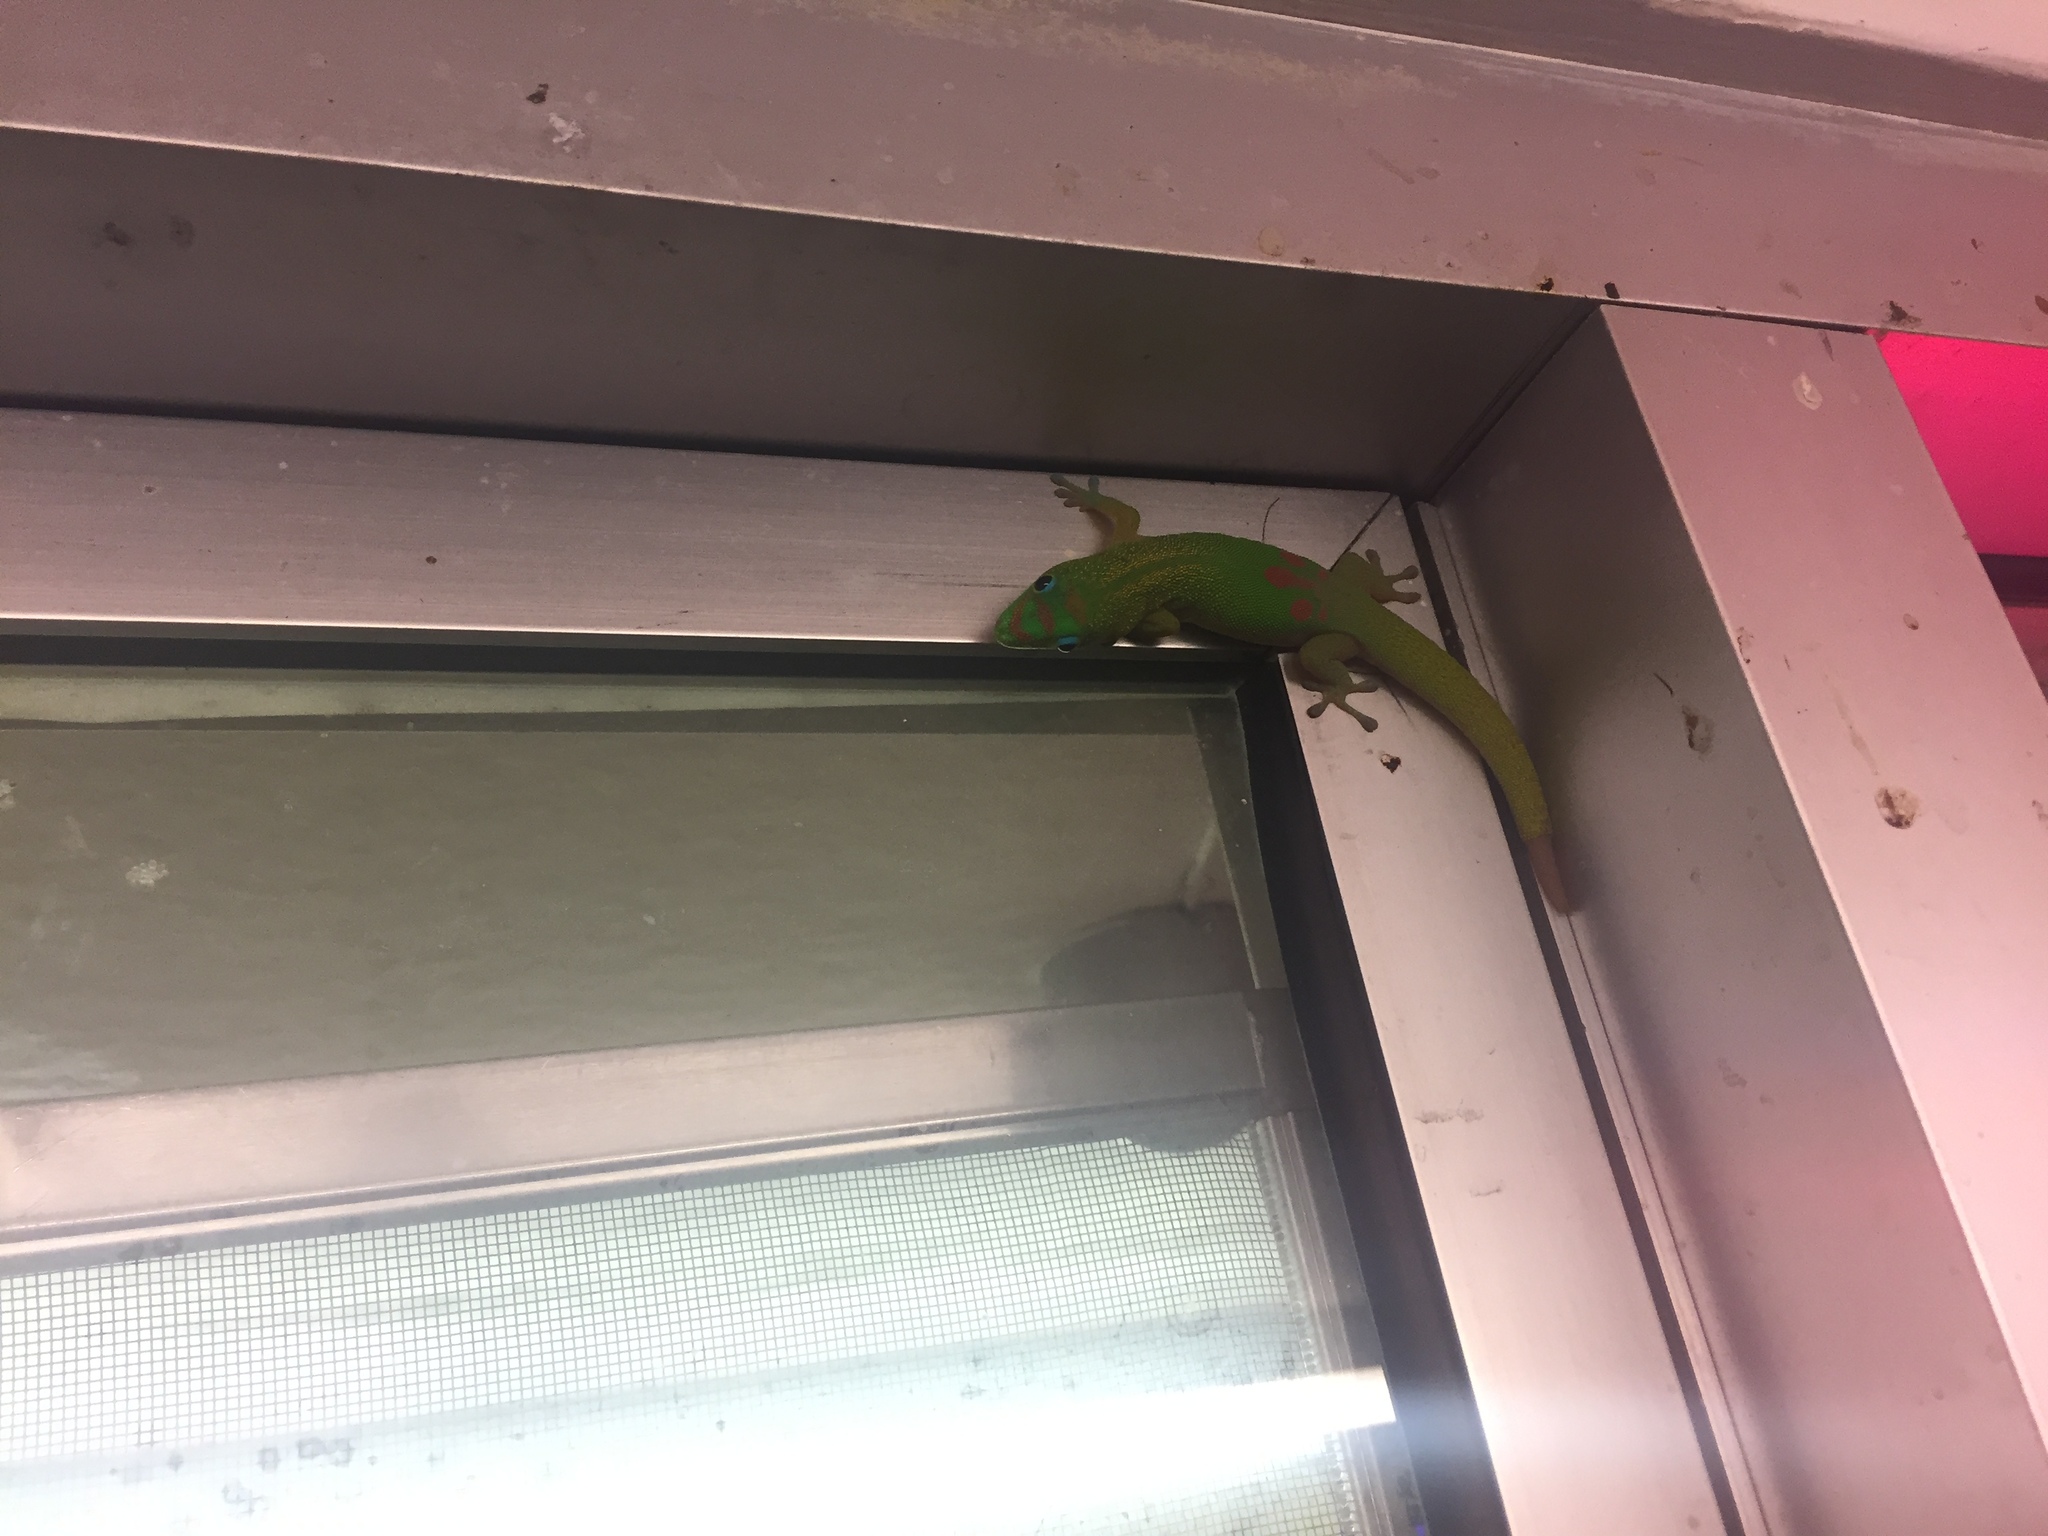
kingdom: Animalia
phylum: Chordata
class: Squamata
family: Gekkonidae
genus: Phelsuma
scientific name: Phelsuma laticauda
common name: Gold dust day gecko
